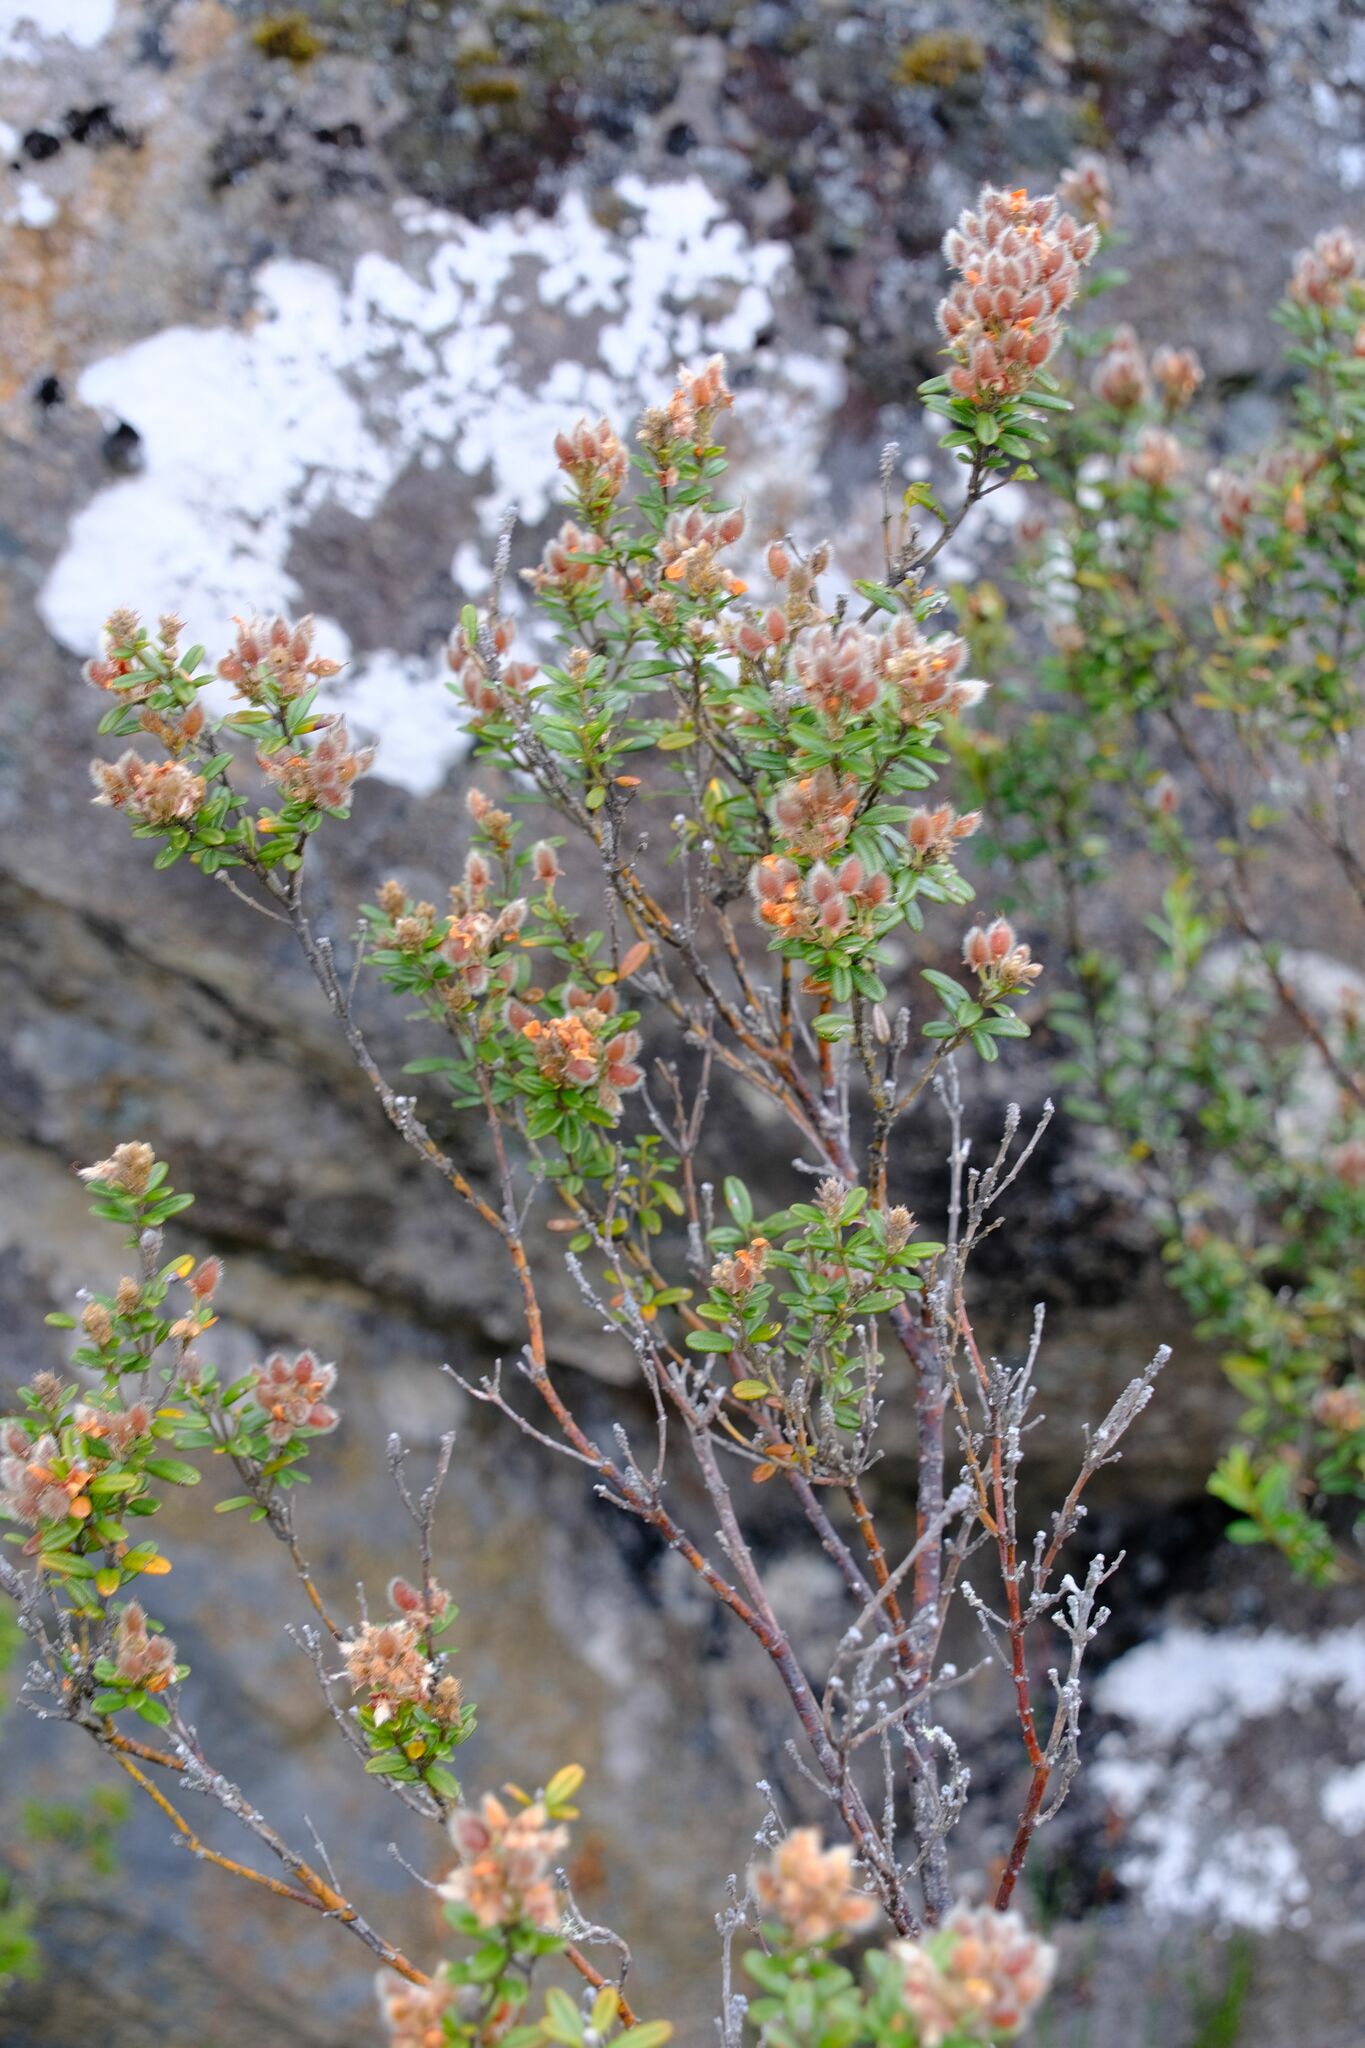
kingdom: Plantae
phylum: Tracheophyta
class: Magnoliopsida
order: Fabales
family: Fabaceae
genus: Oxylobium
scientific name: Oxylobium ellipticum
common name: Golden shaggy-pea
